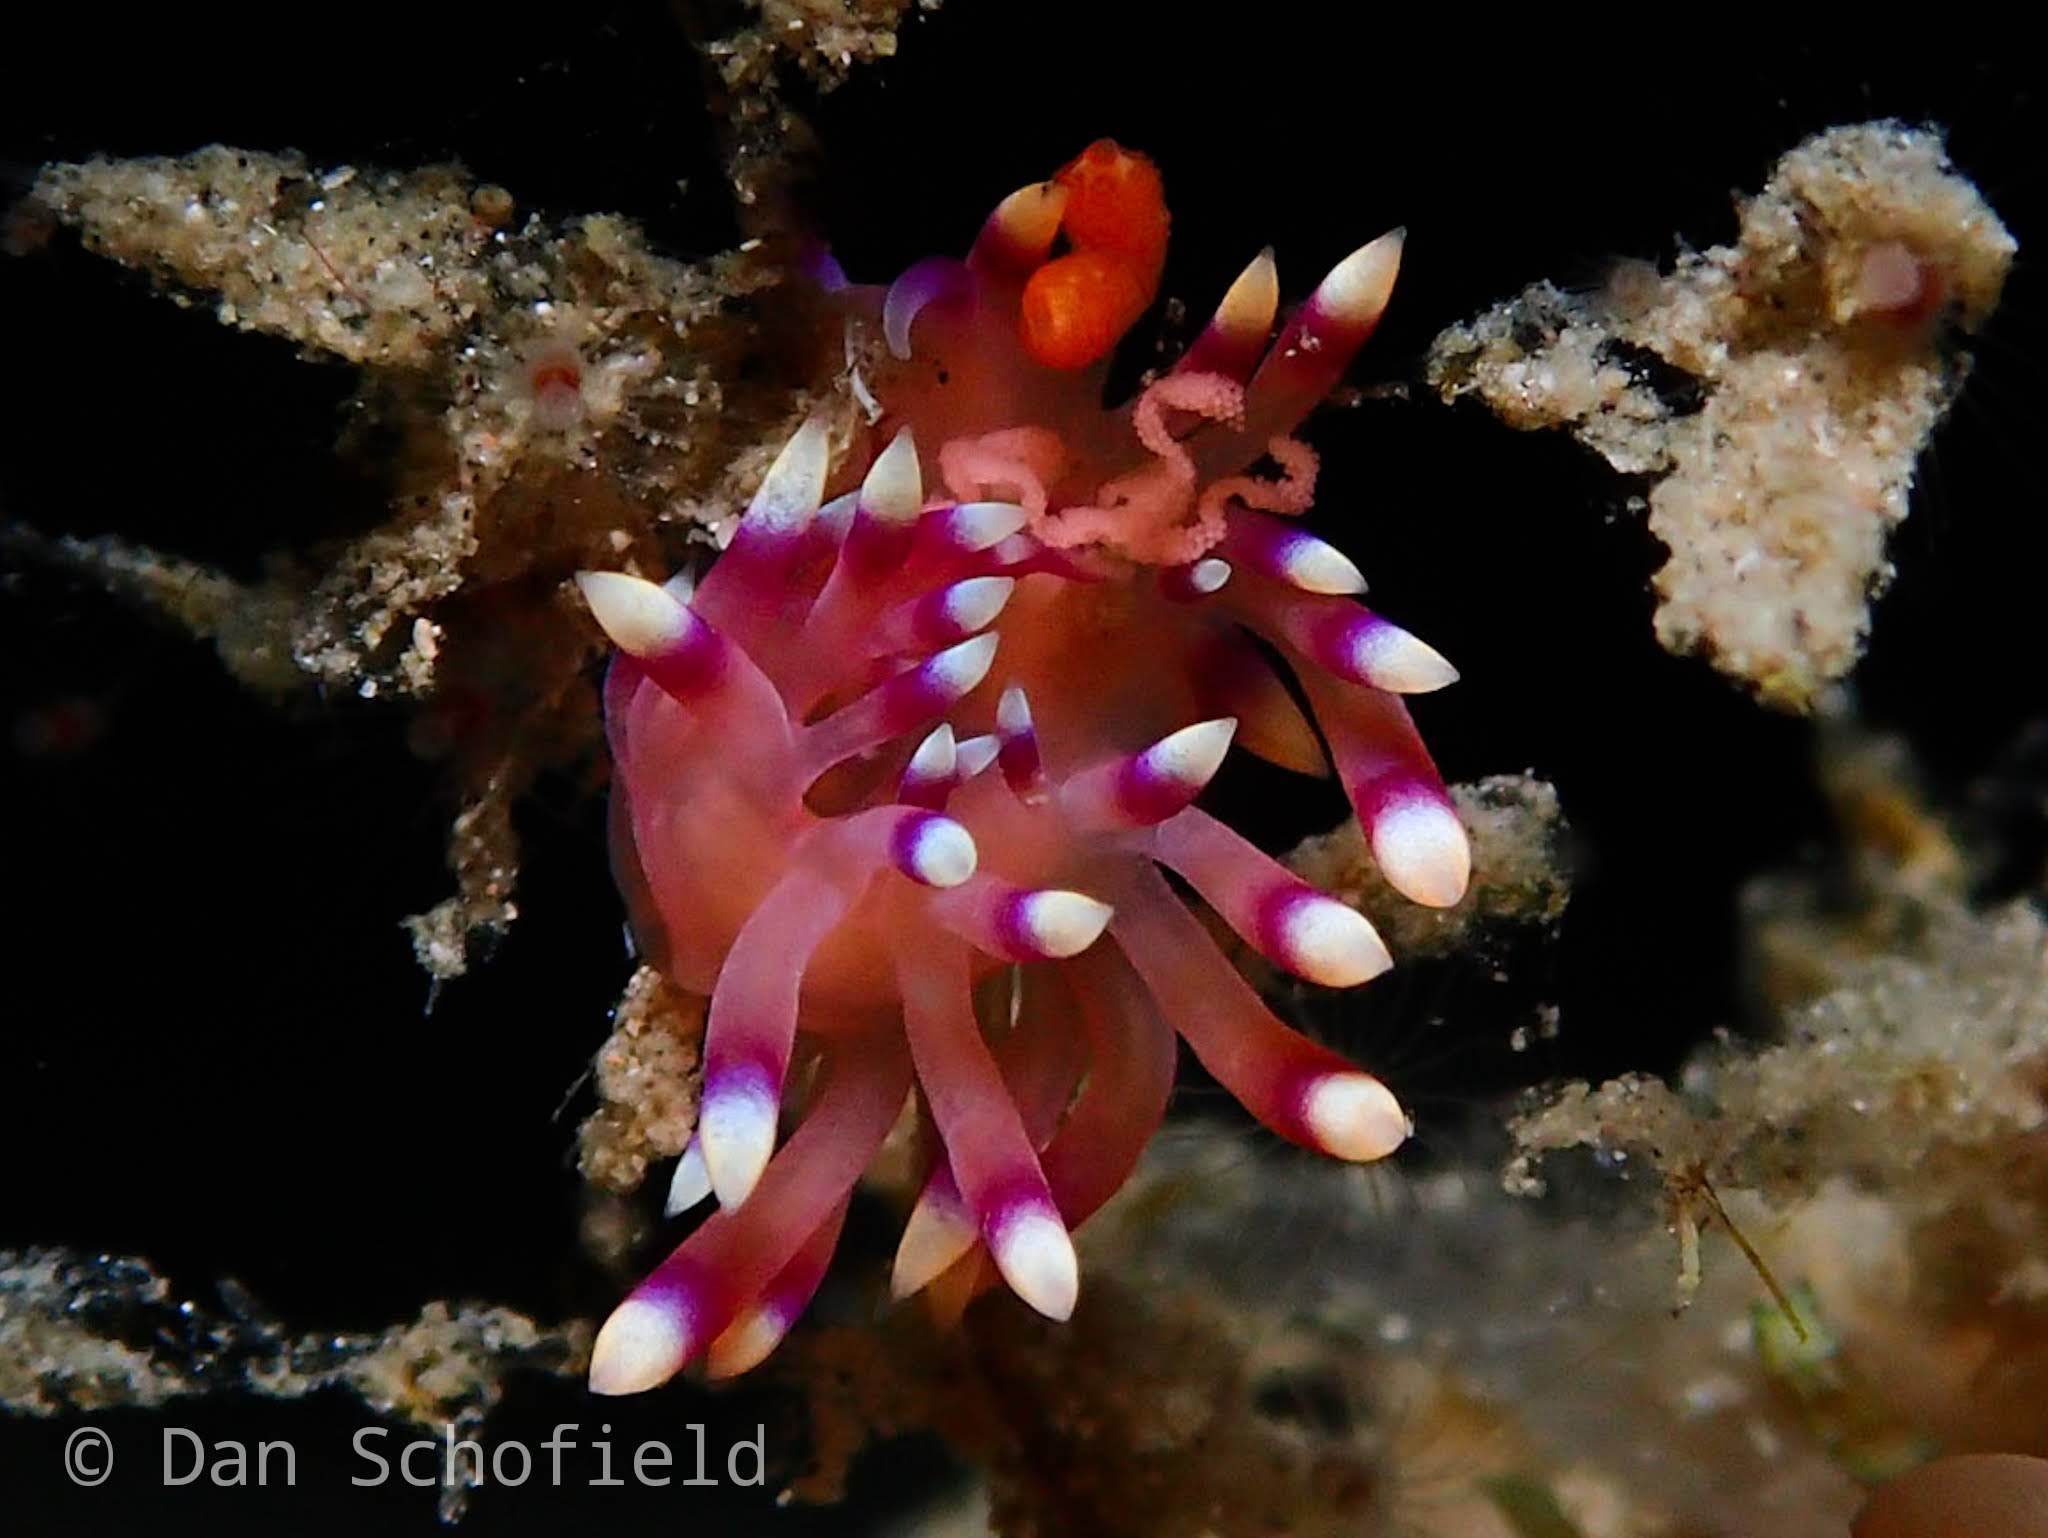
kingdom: Animalia
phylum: Mollusca
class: Gastropoda
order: Nudibranchia
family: Flabellinidae
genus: Coryphellina
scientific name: Coryphellina exoptata
